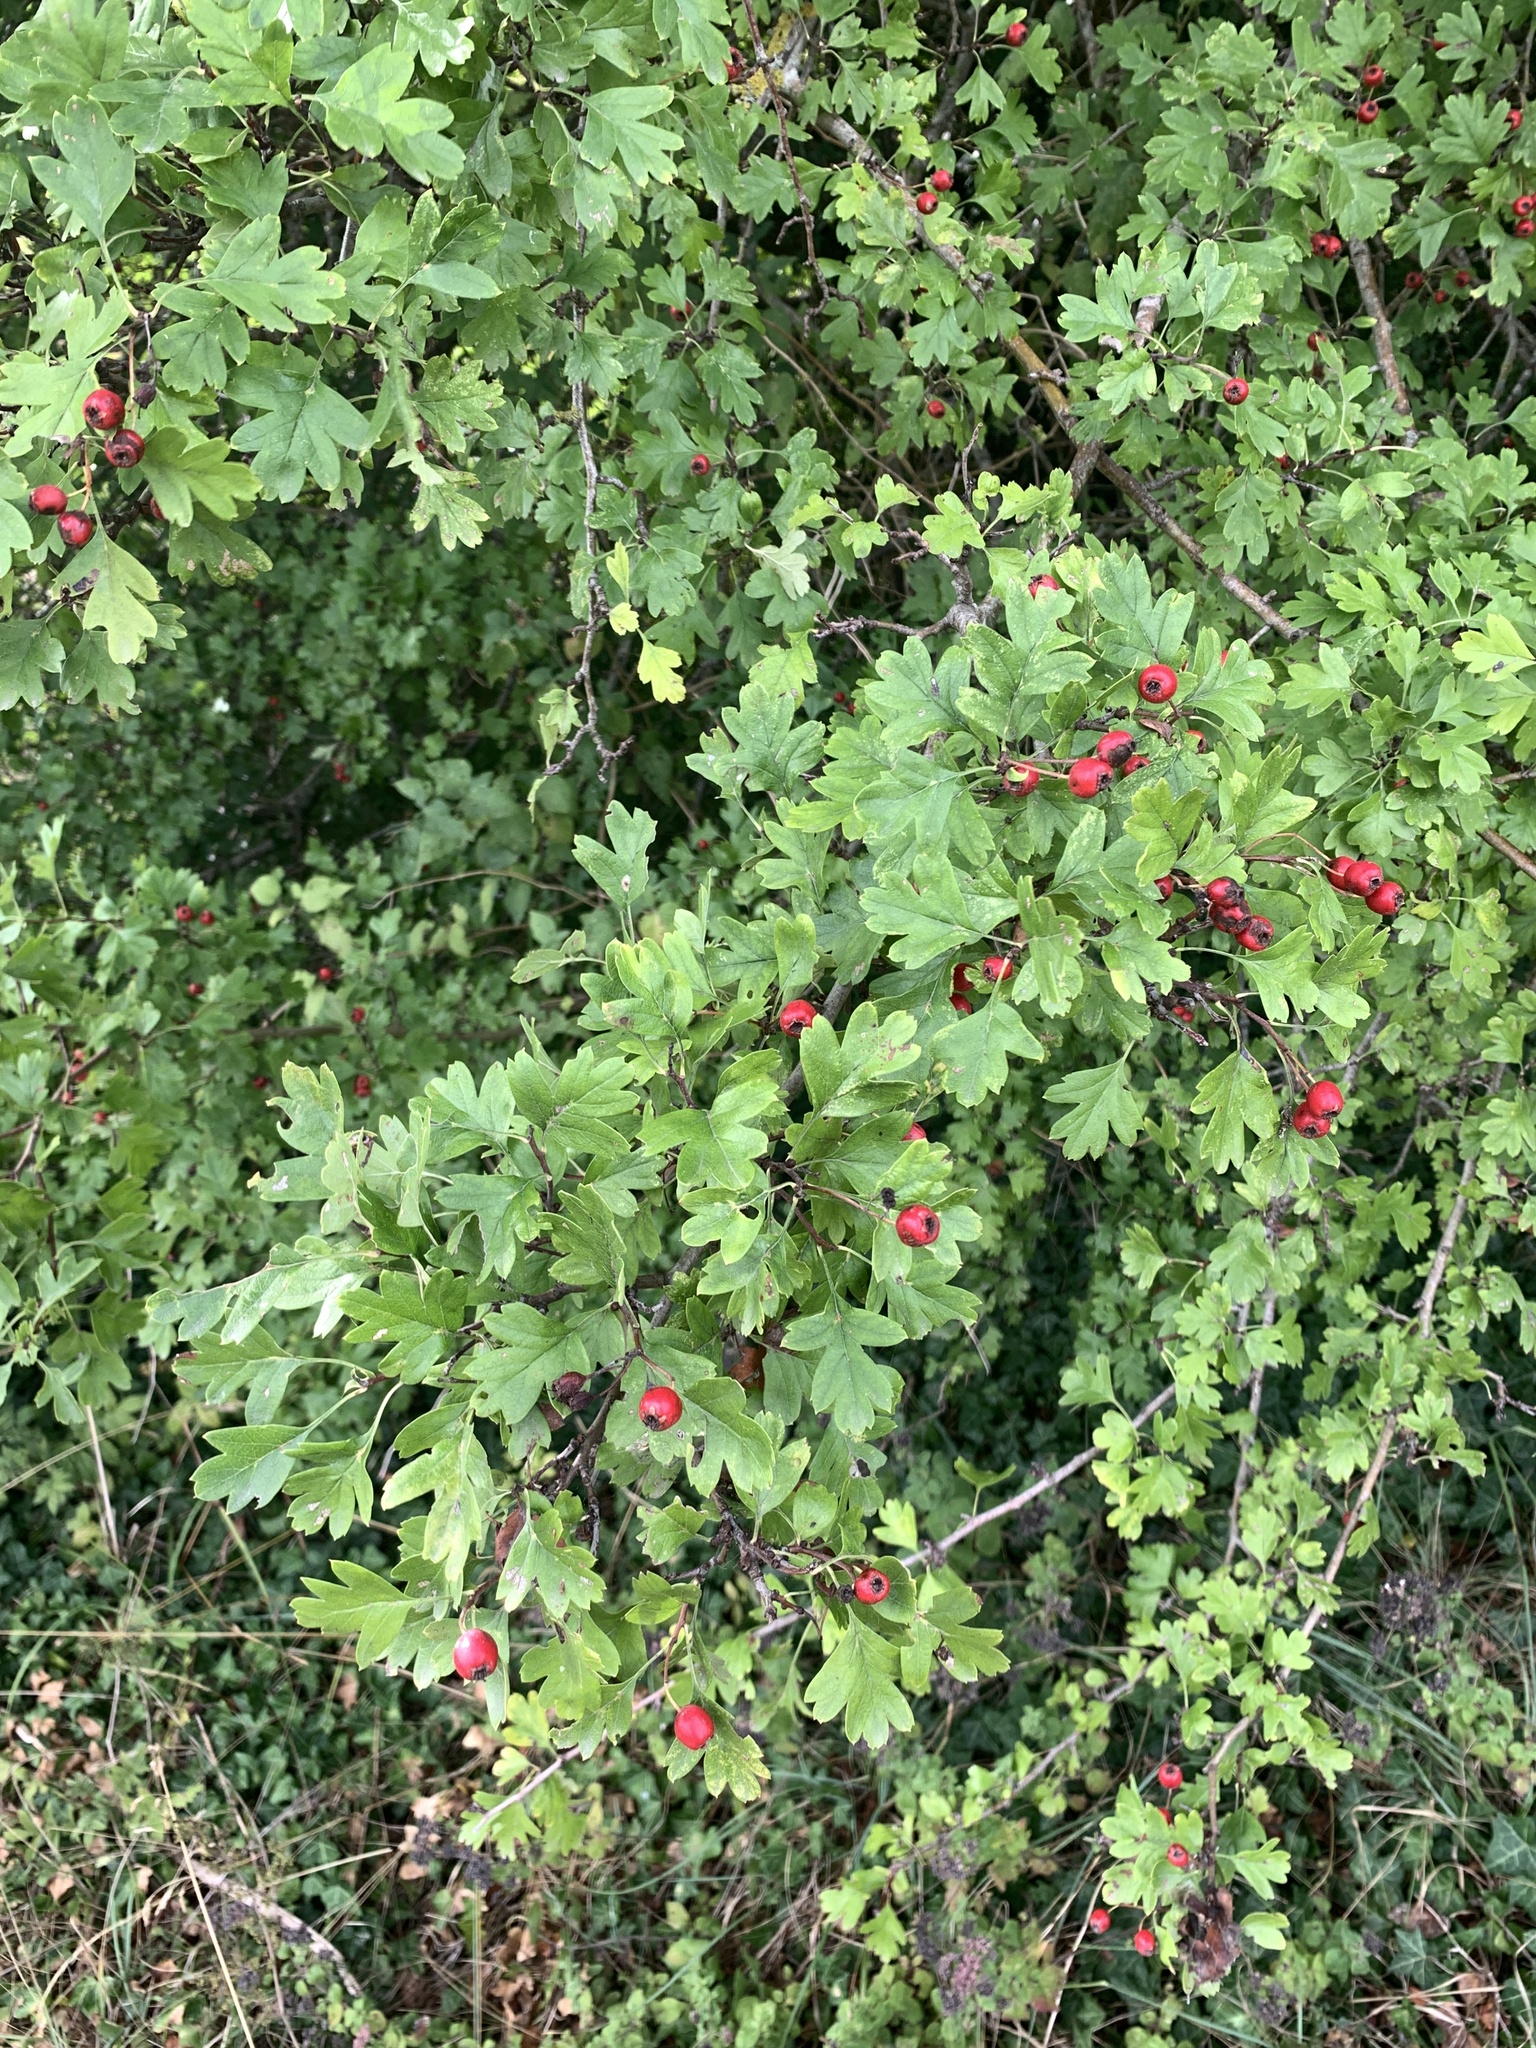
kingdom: Plantae
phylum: Tracheophyta
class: Magnoliopsida
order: Rosales
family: Rosaceae
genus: Crataegus
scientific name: Crataegus monogyna
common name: Hawthorn
